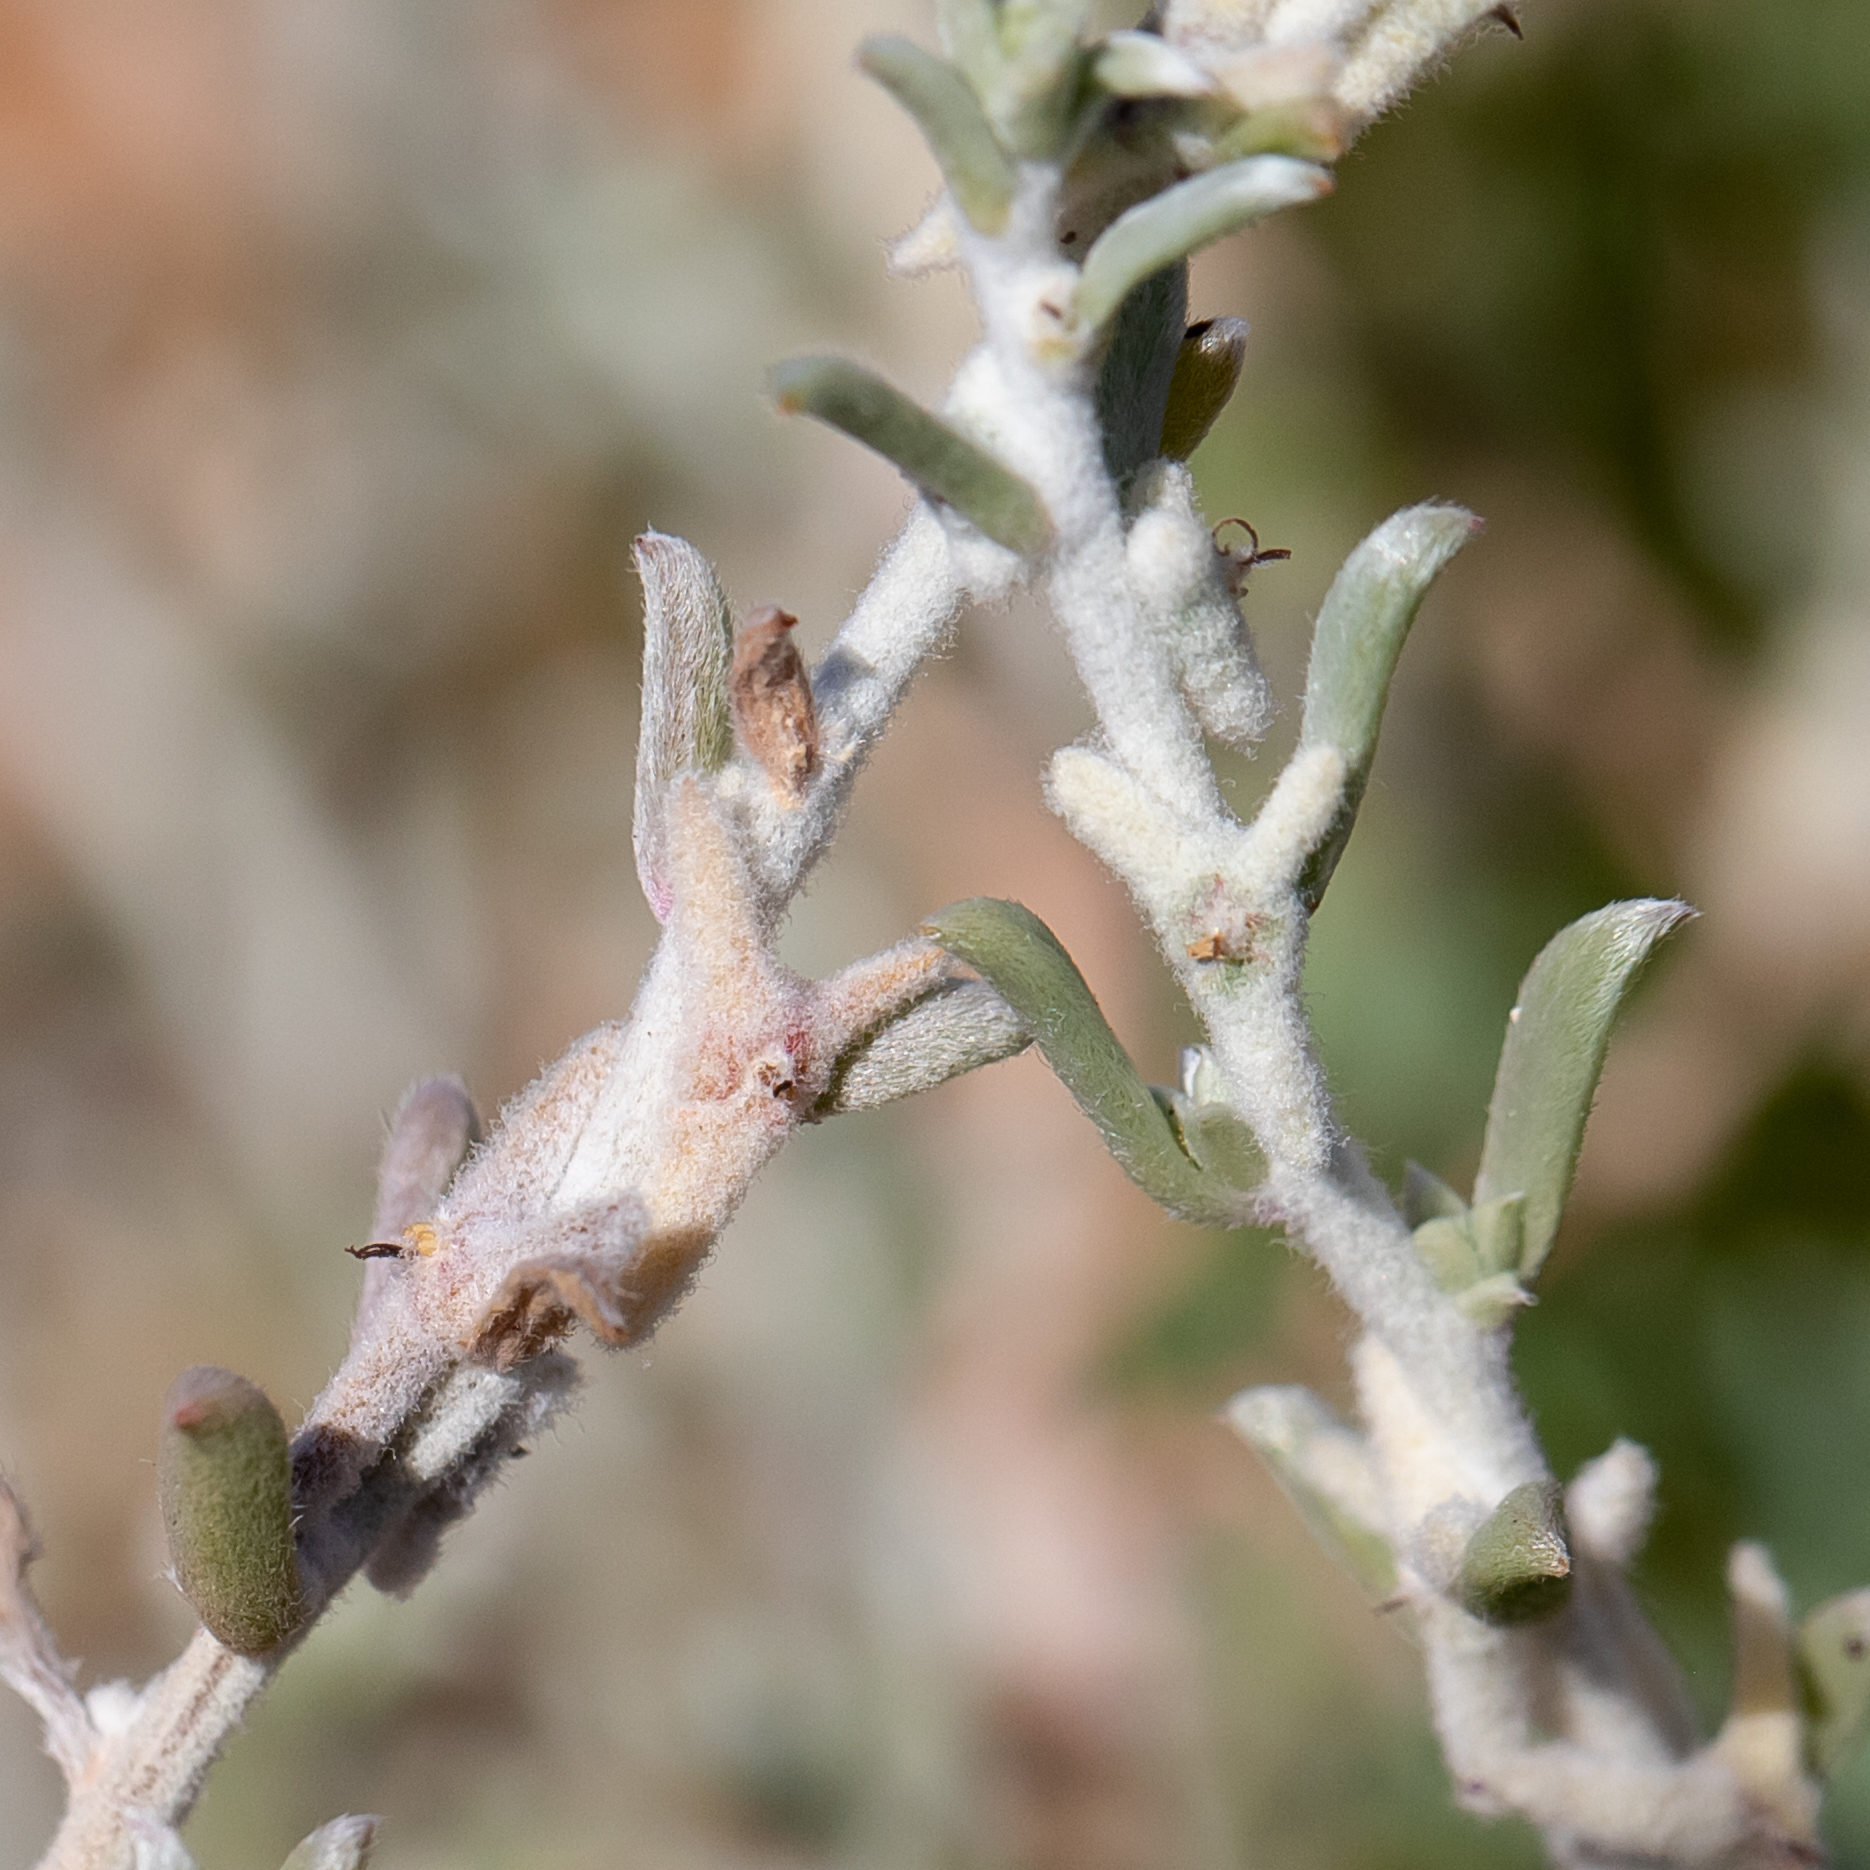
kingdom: Plantae
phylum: Tracheophyta
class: Magnoliopsida
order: Caryophyllales
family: Amaranthaceae
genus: Malacocera
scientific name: Malacocera tricornis
